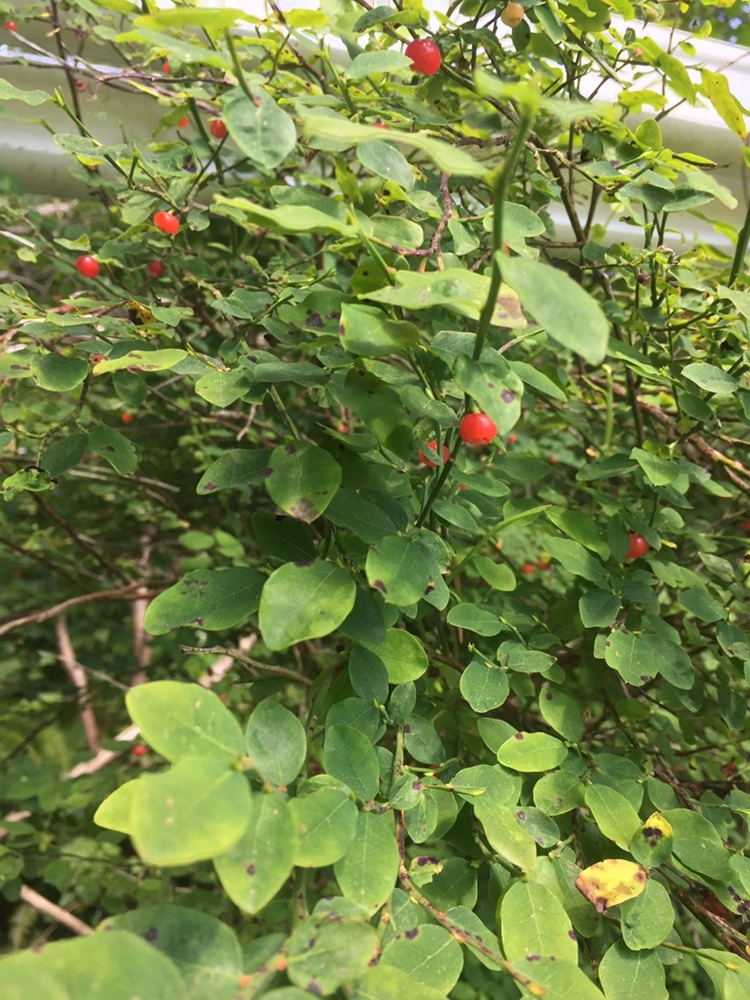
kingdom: Plantae
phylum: Tracheophyta
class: Magnoliopsida
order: Ericales
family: Ericaceae
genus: Vaccinium
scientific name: Vaccinium parvifolium
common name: Red-huckleberry
